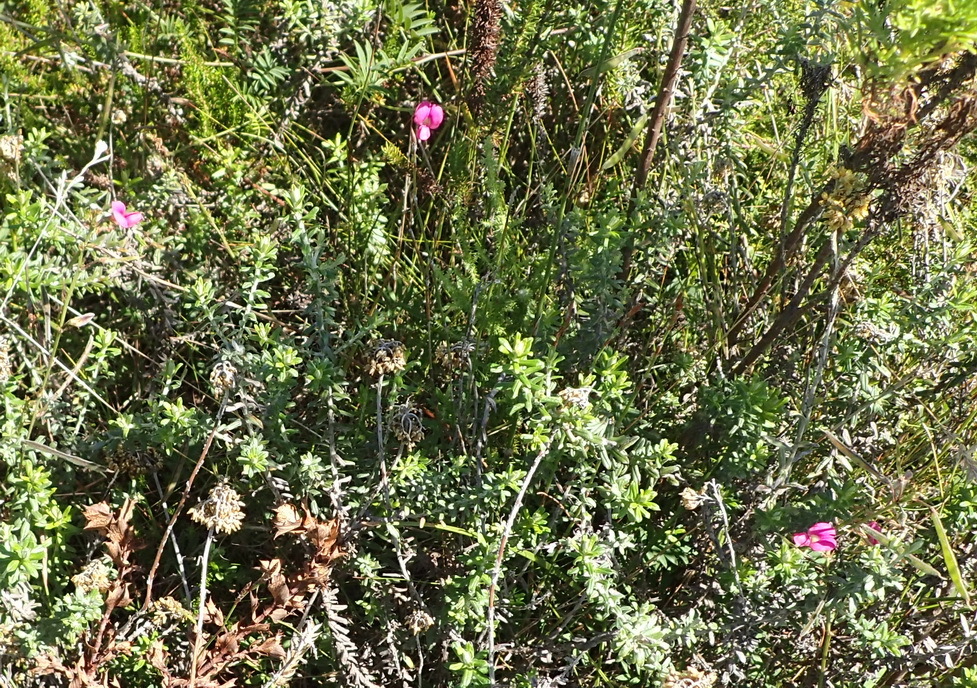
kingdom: Plantae
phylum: Tracheophyta
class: Magnoliopsida
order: Fabales
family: Fabaceae
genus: Tephrosia
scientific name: Tephrosia capensis
